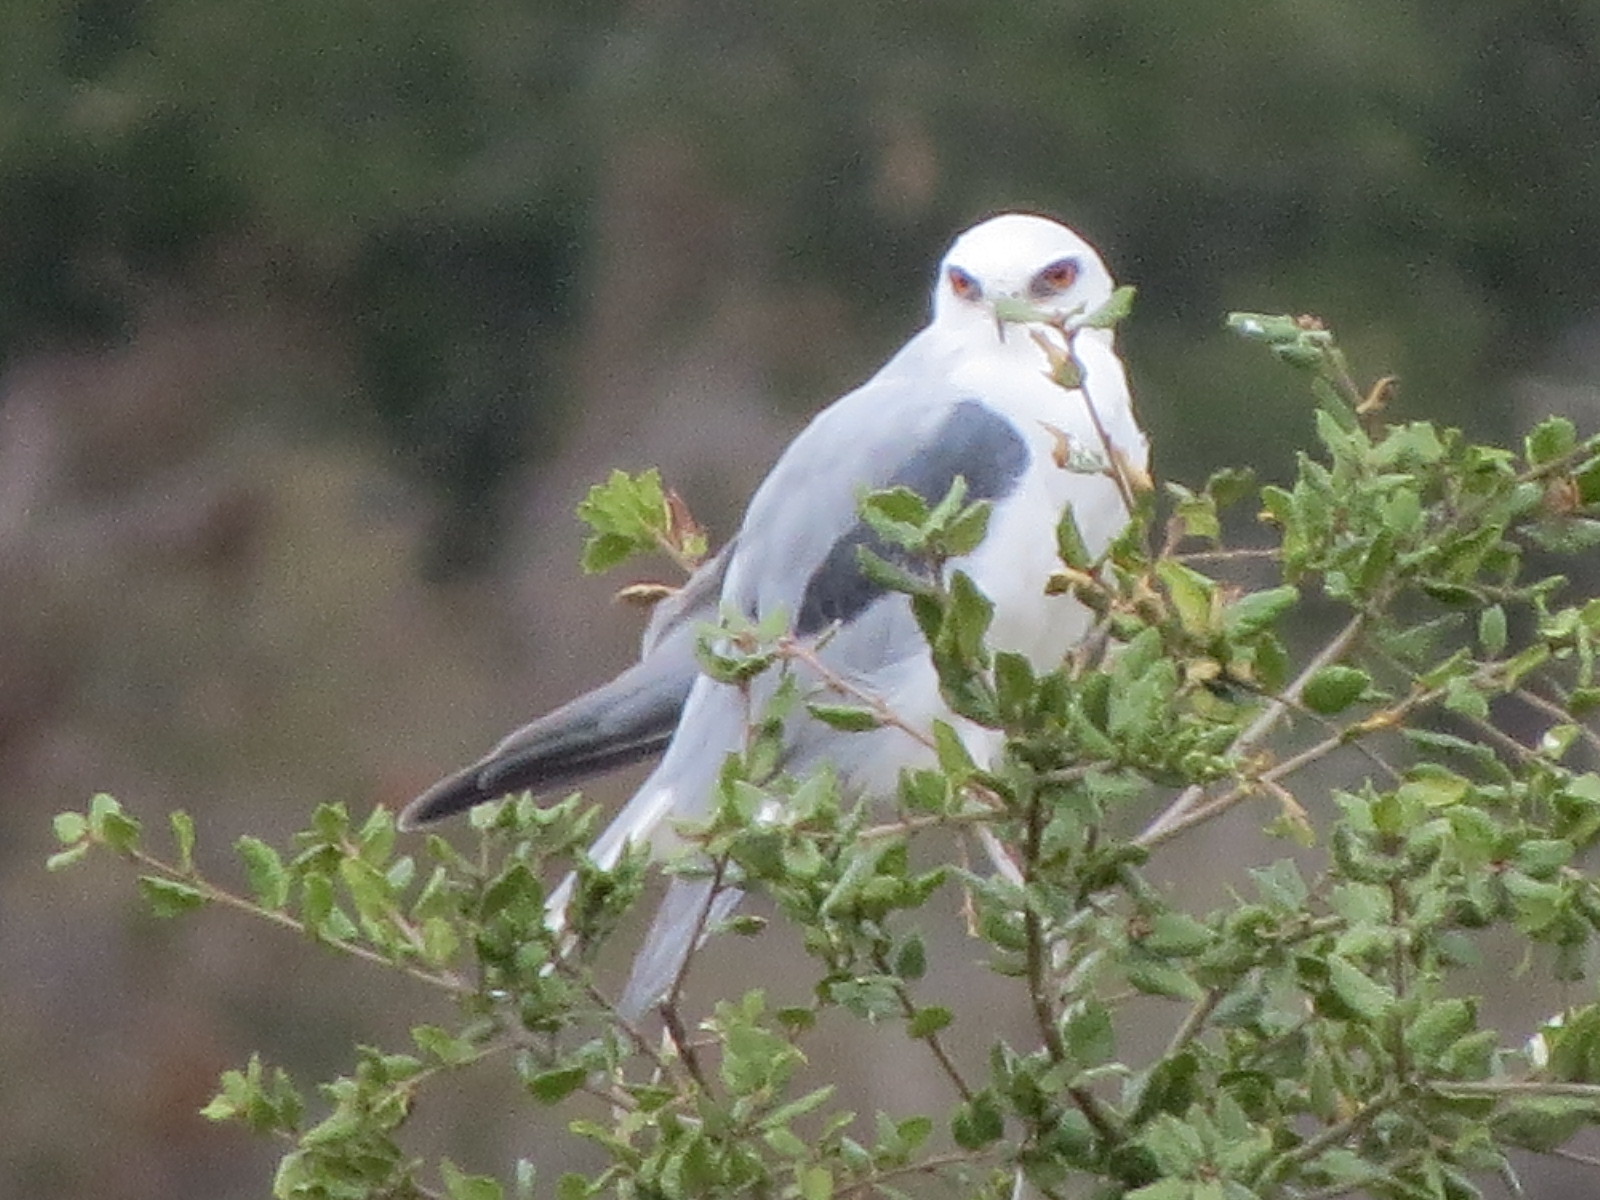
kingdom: Animalia
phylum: Chordata
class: Aves
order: Accipitriformes
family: Accipitridae
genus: Elanus
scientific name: Elanus leucurus
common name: White-tailed kite
